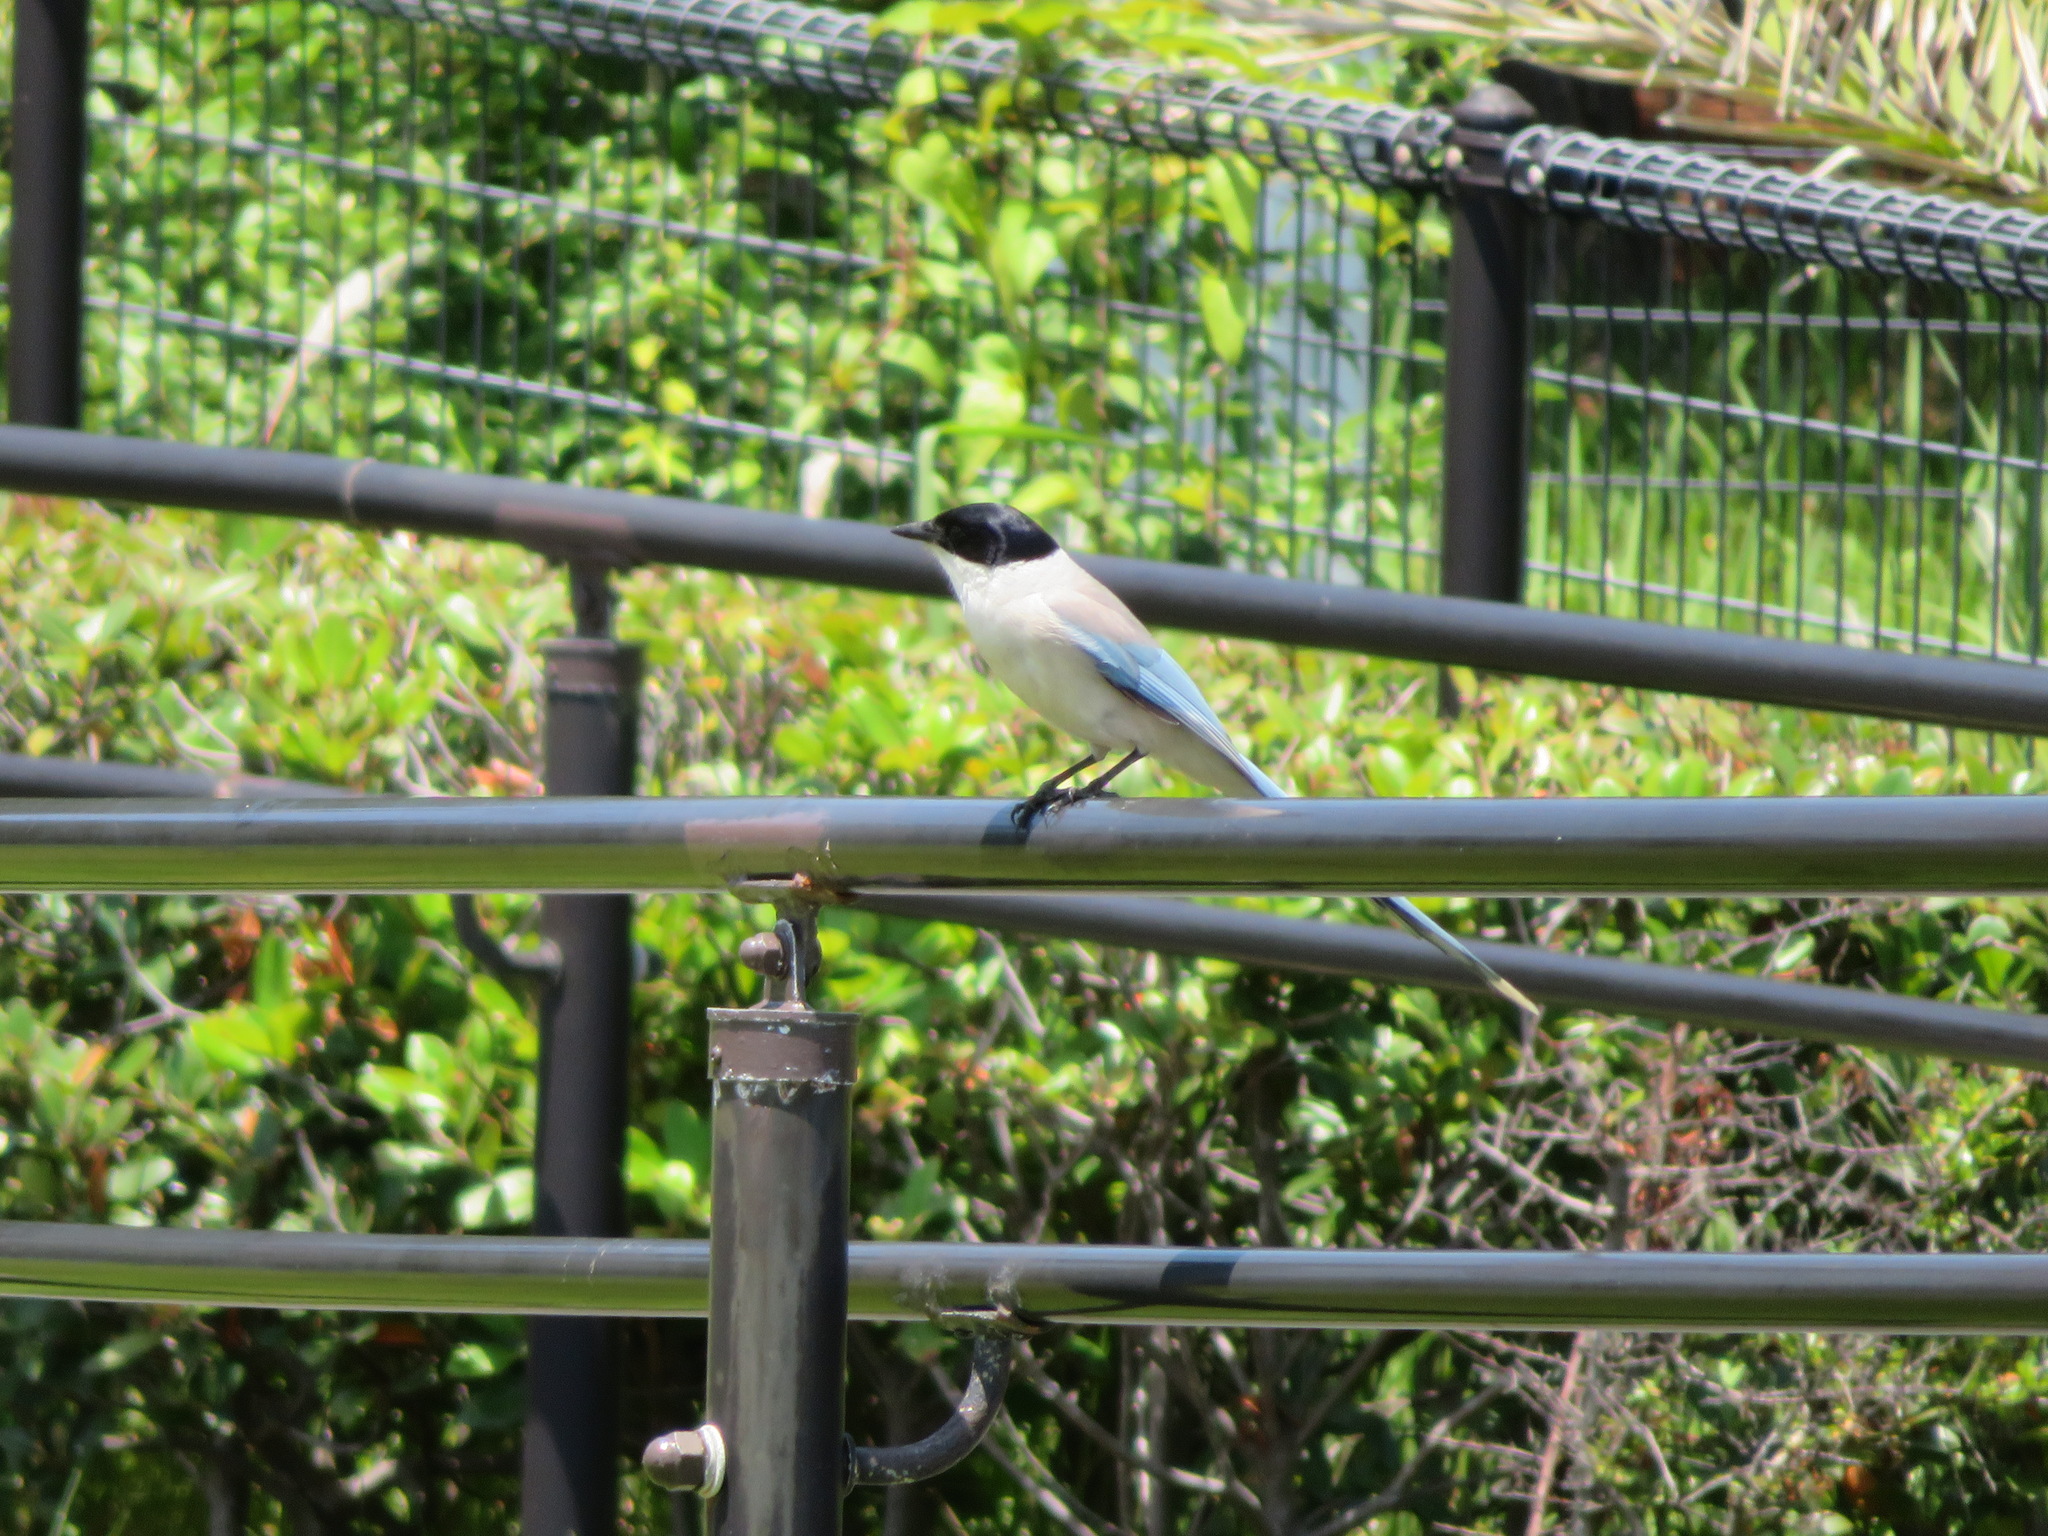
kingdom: Animalia
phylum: Chordata
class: Aves
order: Passeriformes
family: Corvidae
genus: Cyanopica
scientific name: Cyanopica cyanus
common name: Azure-winged magpie
